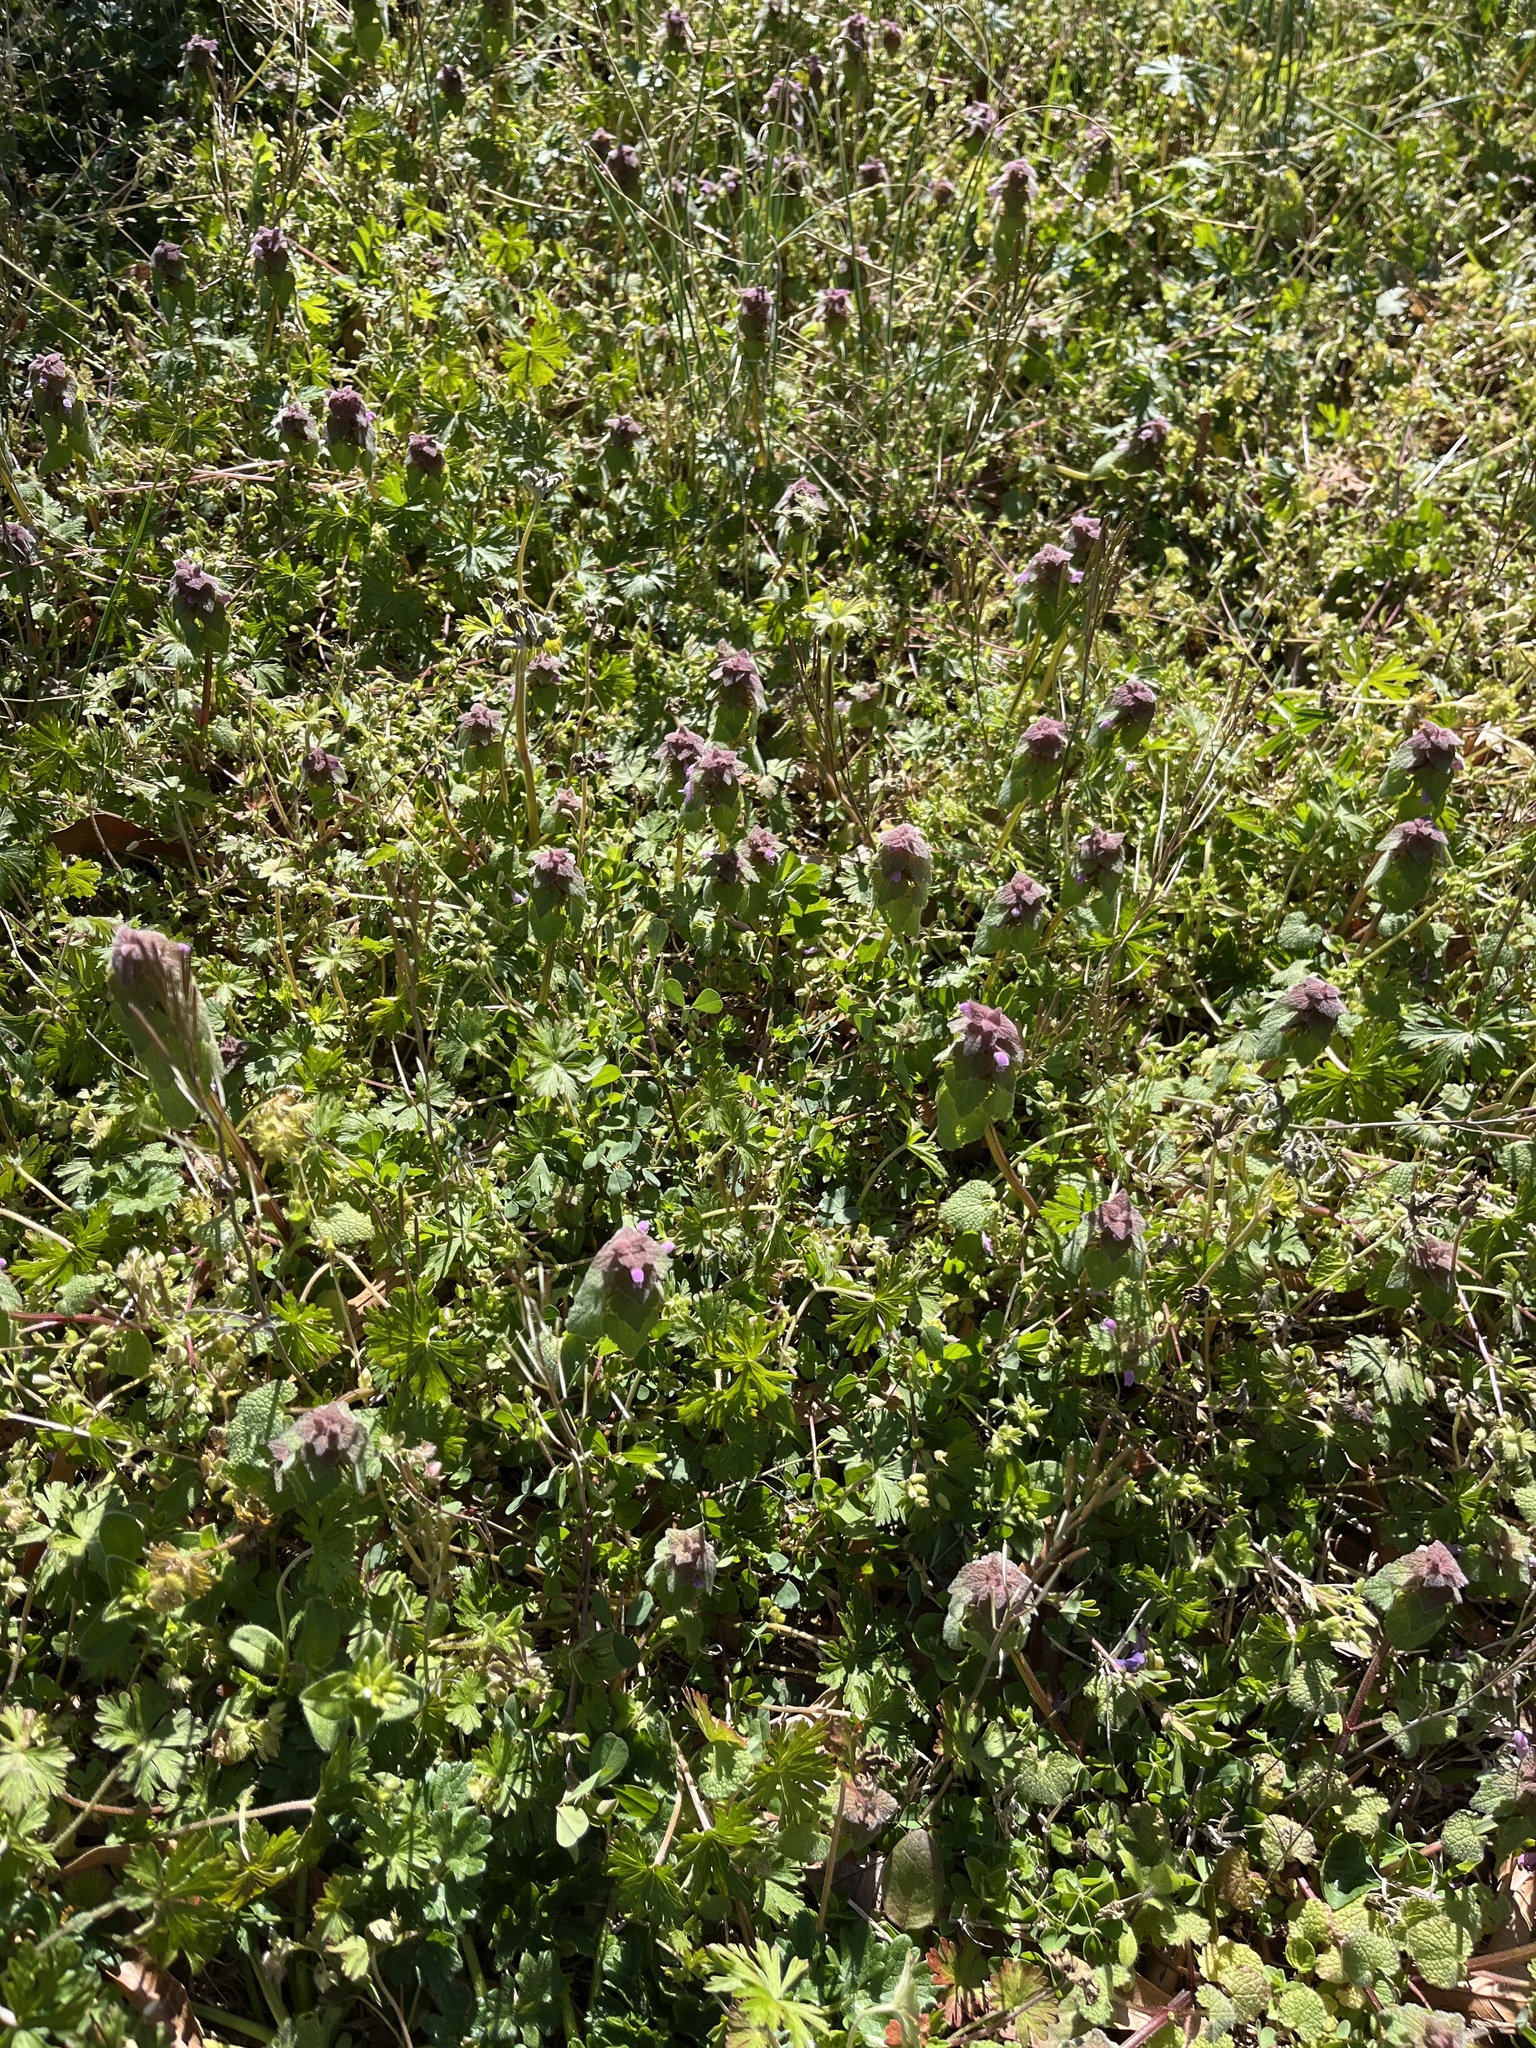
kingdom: Plantae
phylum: Tracheophyta
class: Magnoliopsida
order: Lamiales
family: Lamiaceae
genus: Lamium
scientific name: Lamium purpureum
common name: Red dead-nettle
